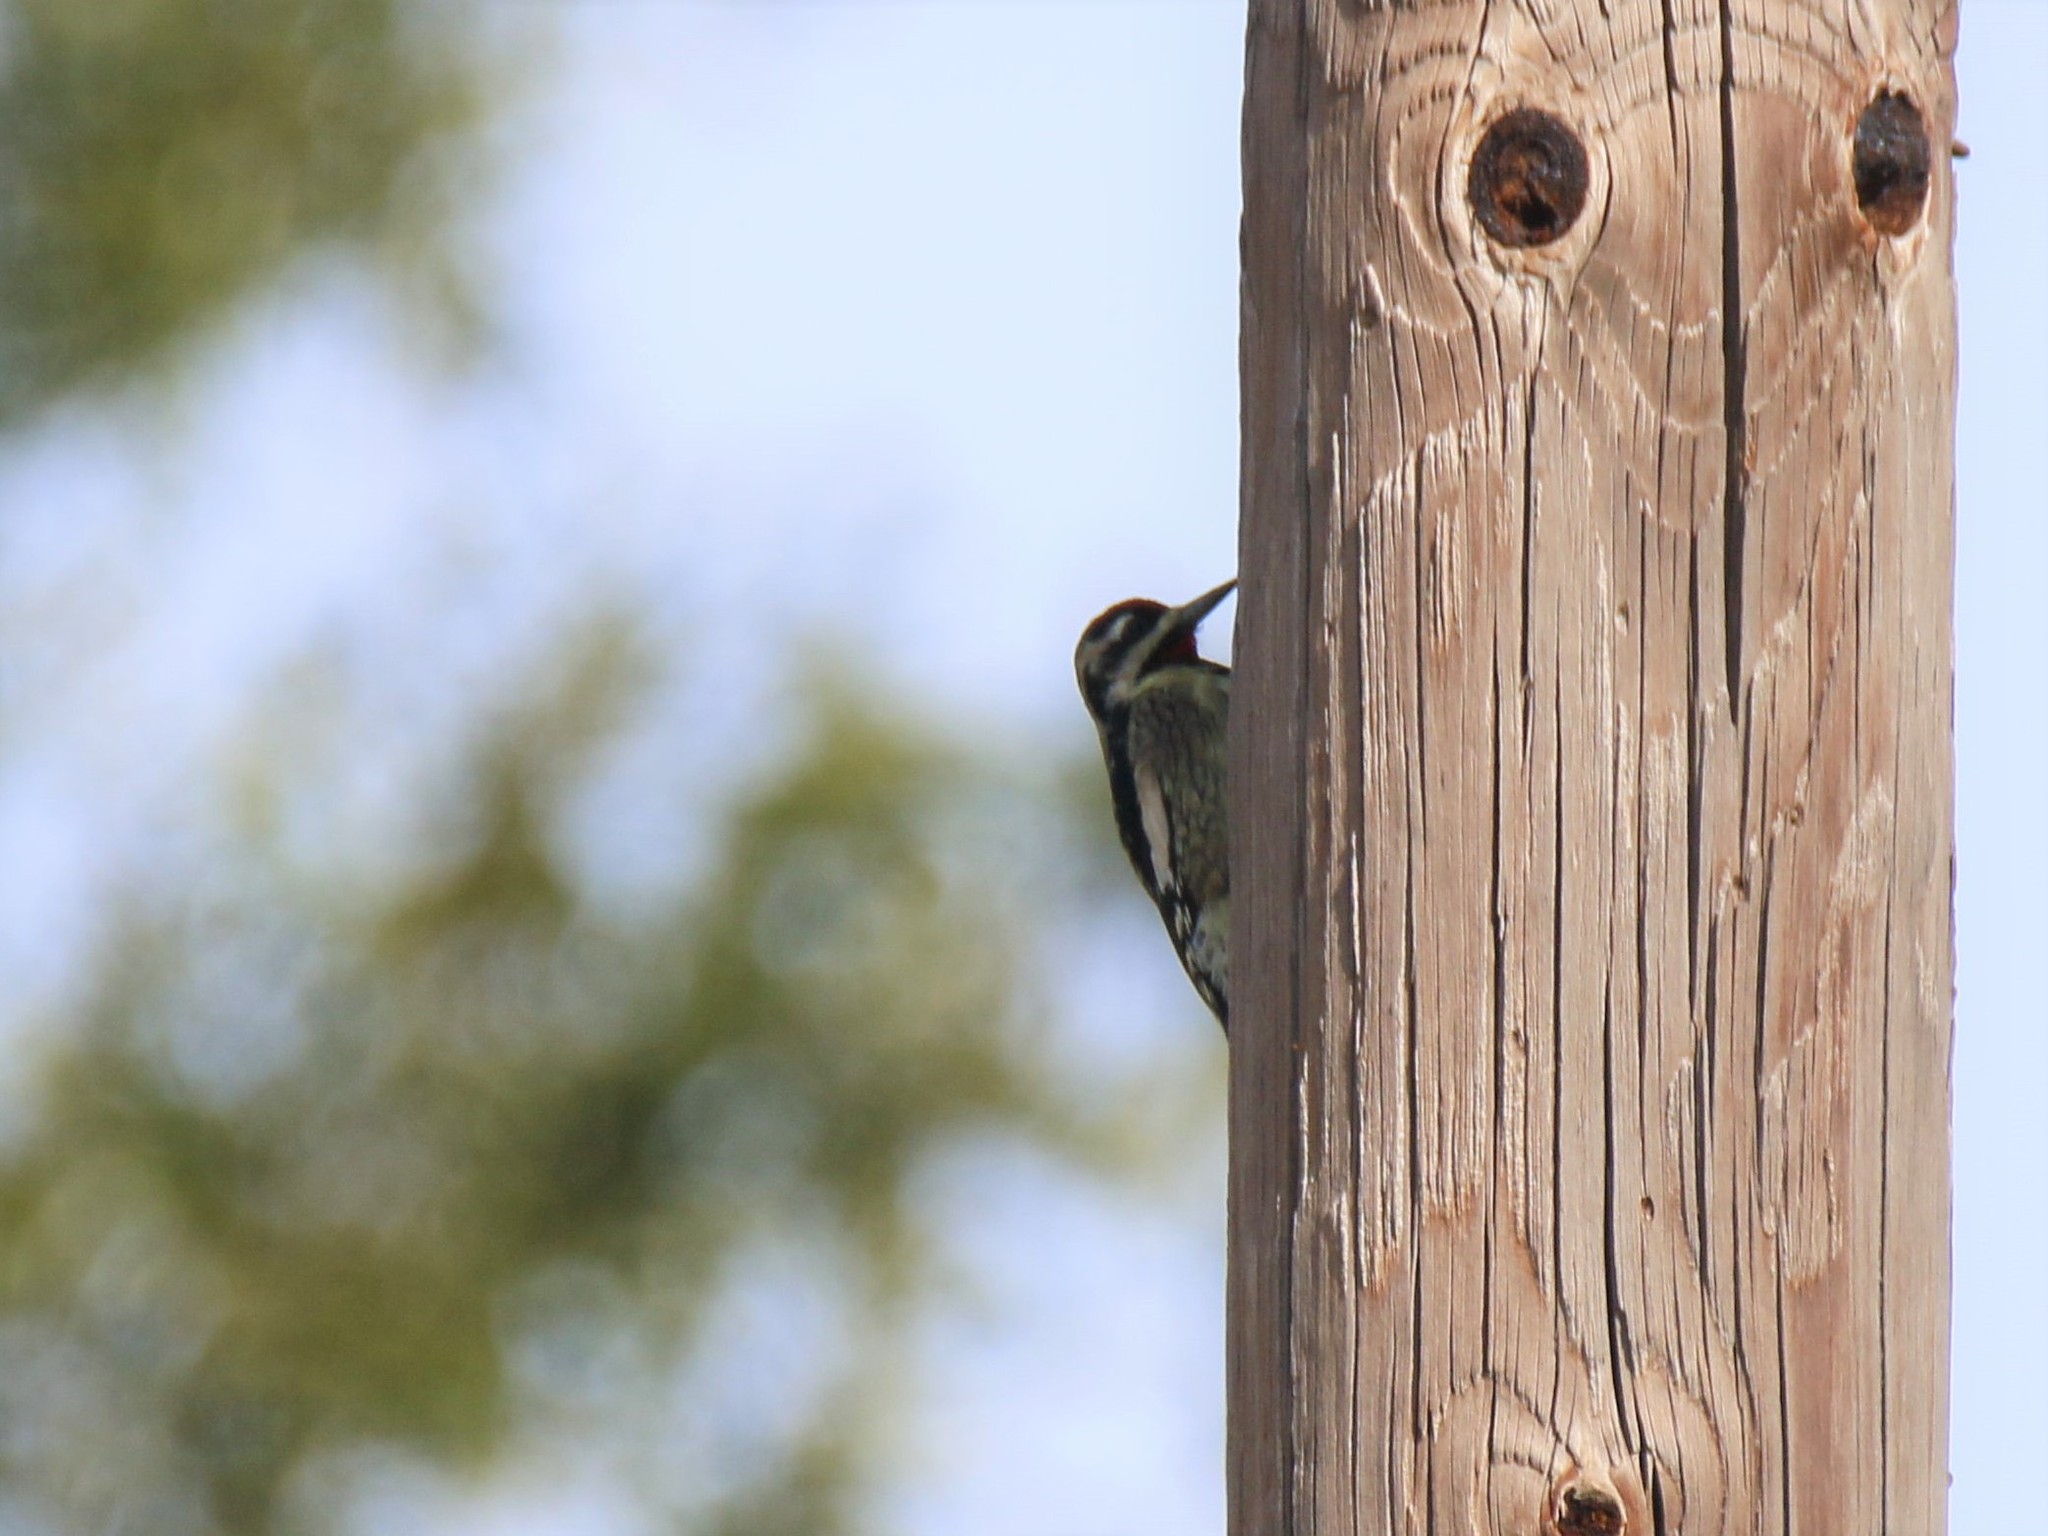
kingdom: Animalia
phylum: Chordata
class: Aves
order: Piciformes
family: Picidae
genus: Sphyrapicus
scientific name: Sphyrapicus varius
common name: Yellow-bellied sapsucker
